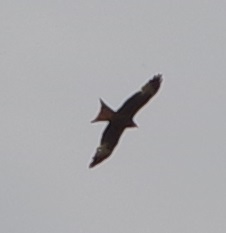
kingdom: Animalia
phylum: Chordata
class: Aves
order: Accipitriformes
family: Accipitridae
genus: Milvus
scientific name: Milvus milvus
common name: Red kite
